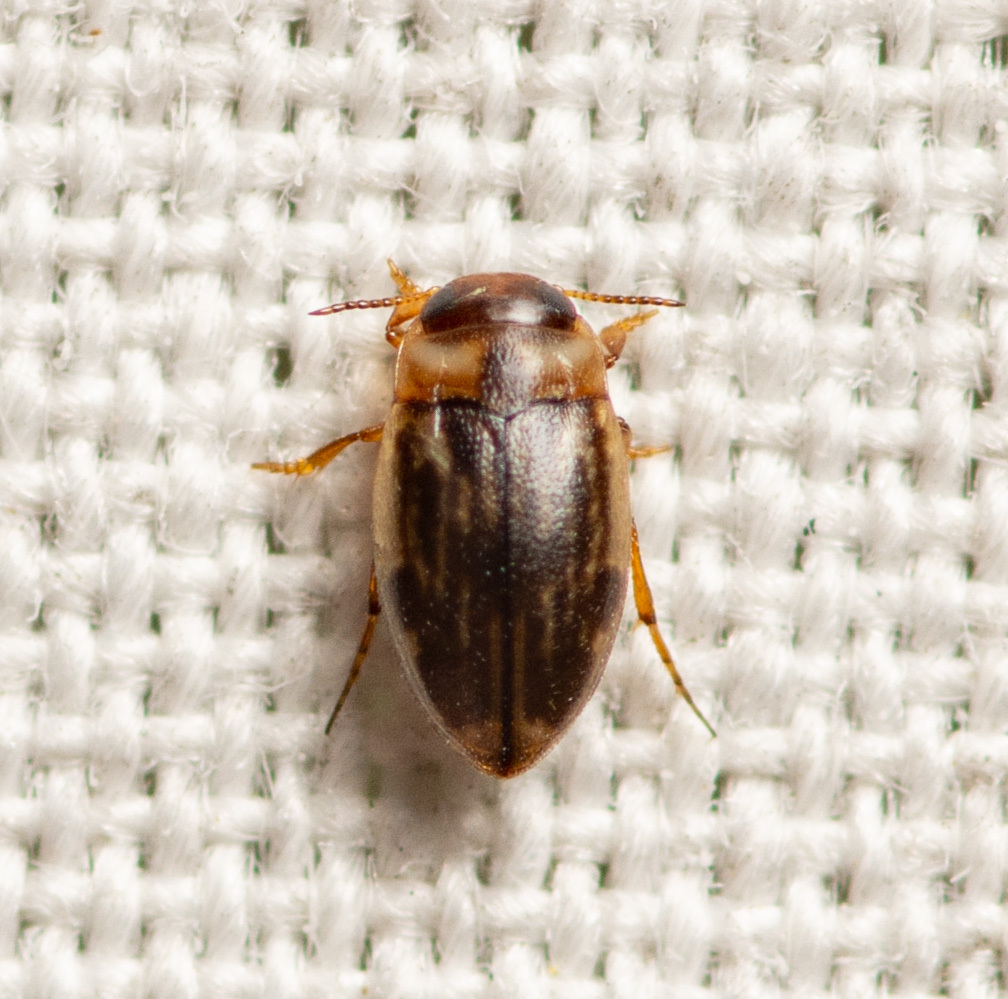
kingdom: Animalia
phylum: Arthropoda
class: Insecta
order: Coleoptera
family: Dytiscidae
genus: Liodessus
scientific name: Liodessus obscurellus
